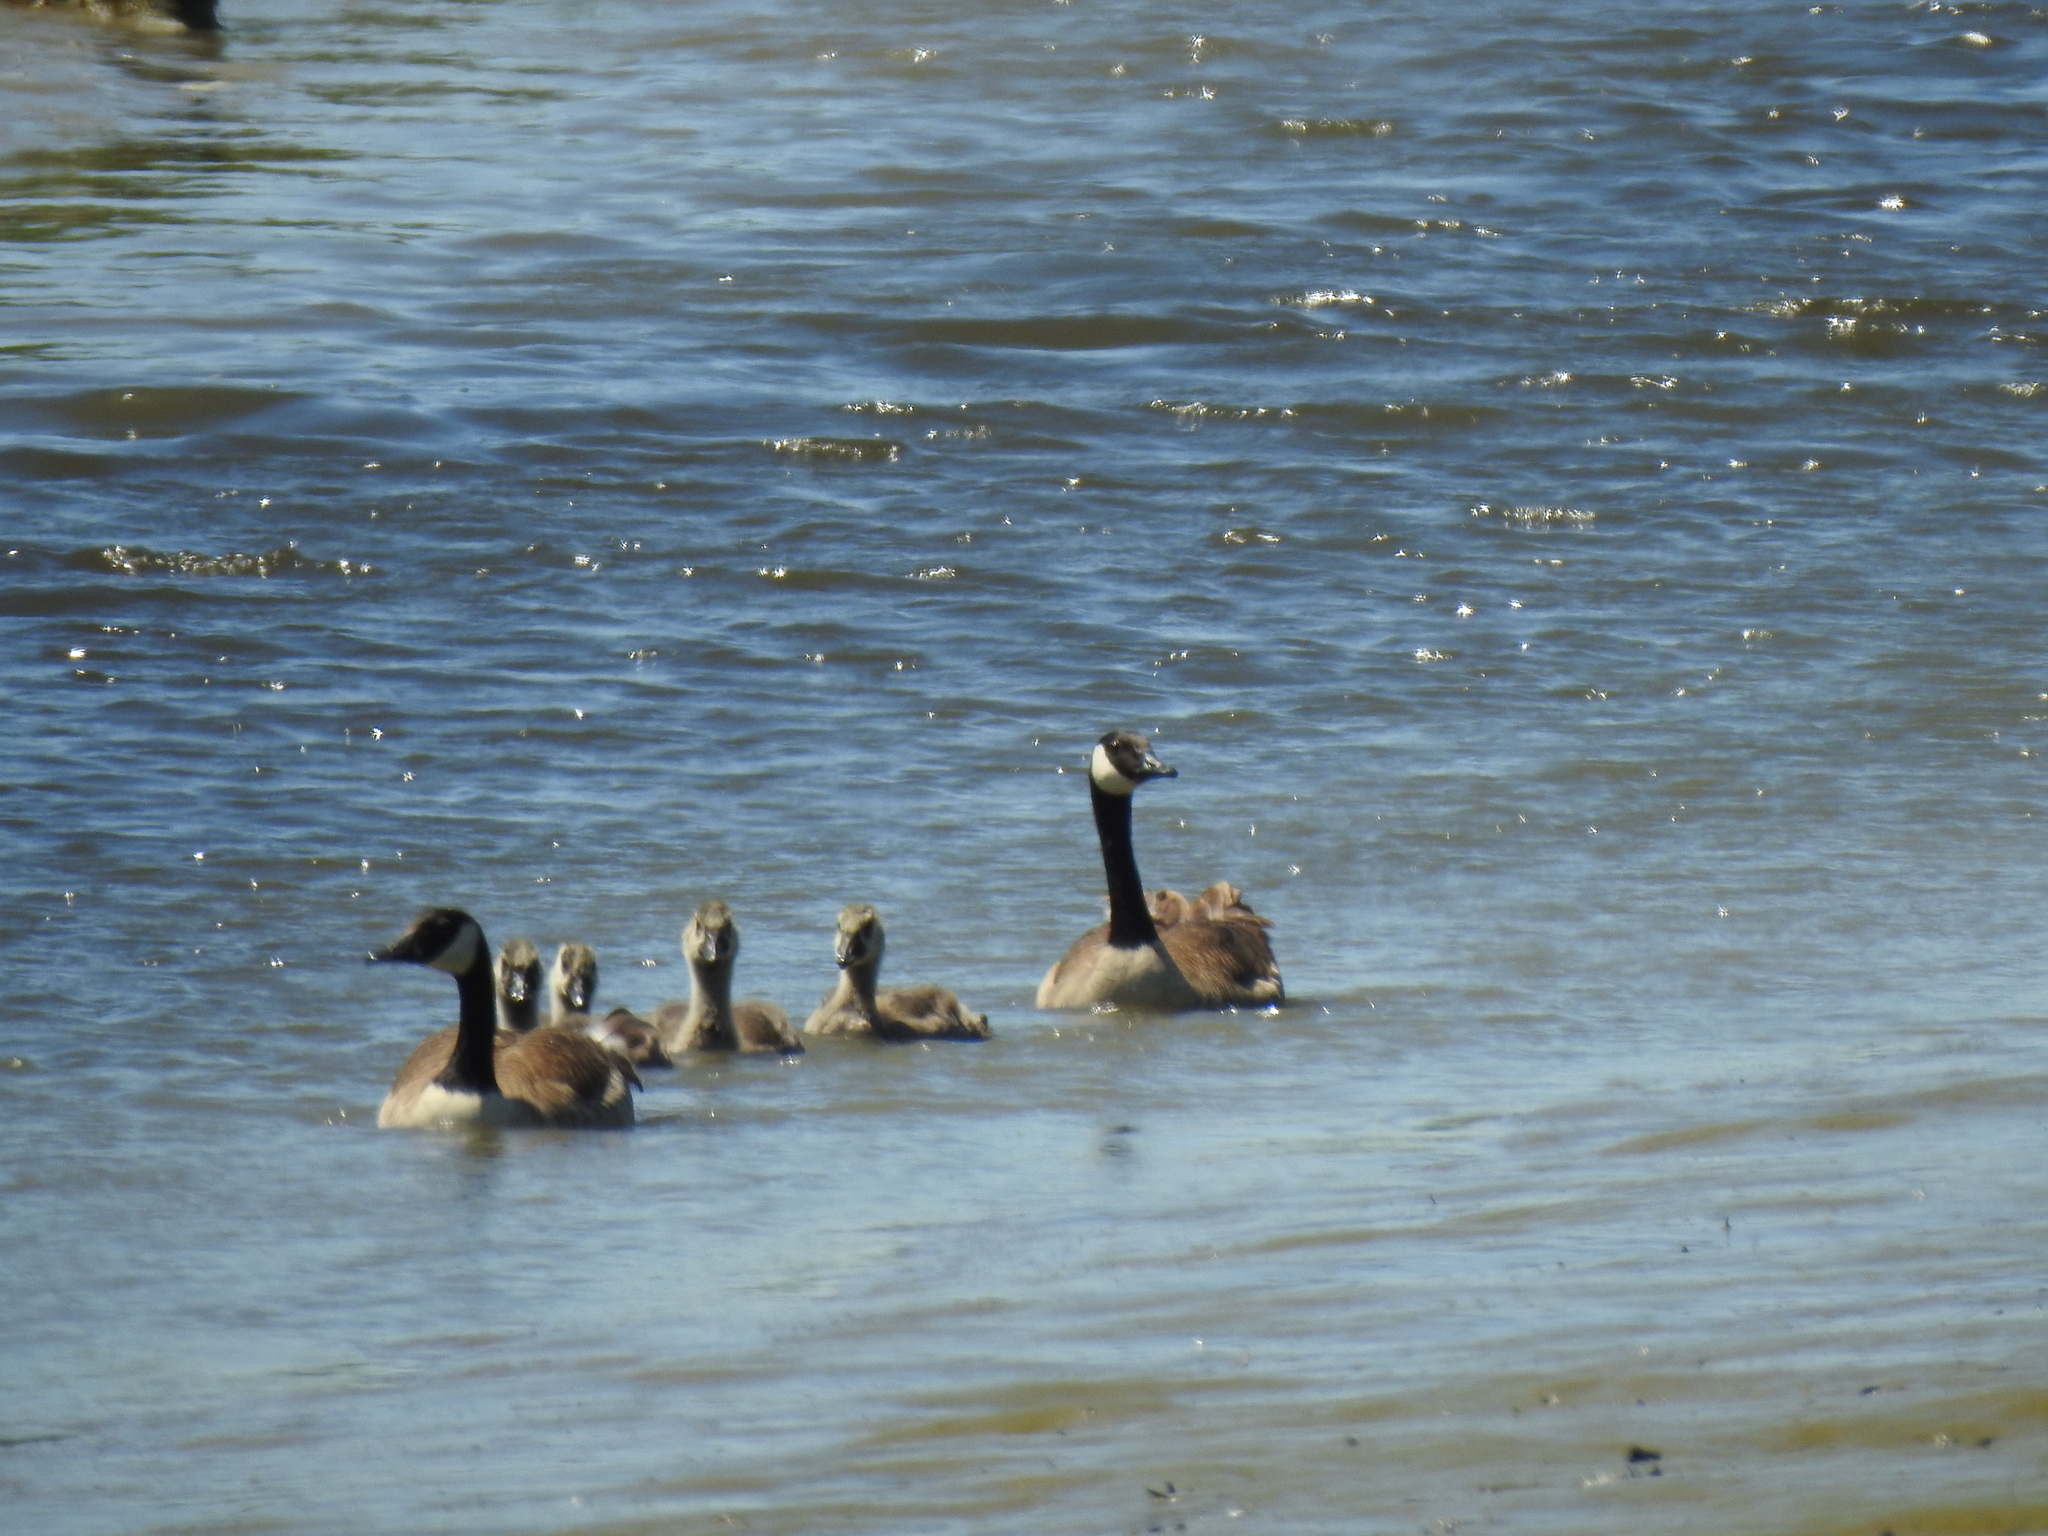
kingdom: Animalia
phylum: Chordata
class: Aves
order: Anseriformes
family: Anatidae
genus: Branta
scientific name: Branta canadensis
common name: Canada goose
